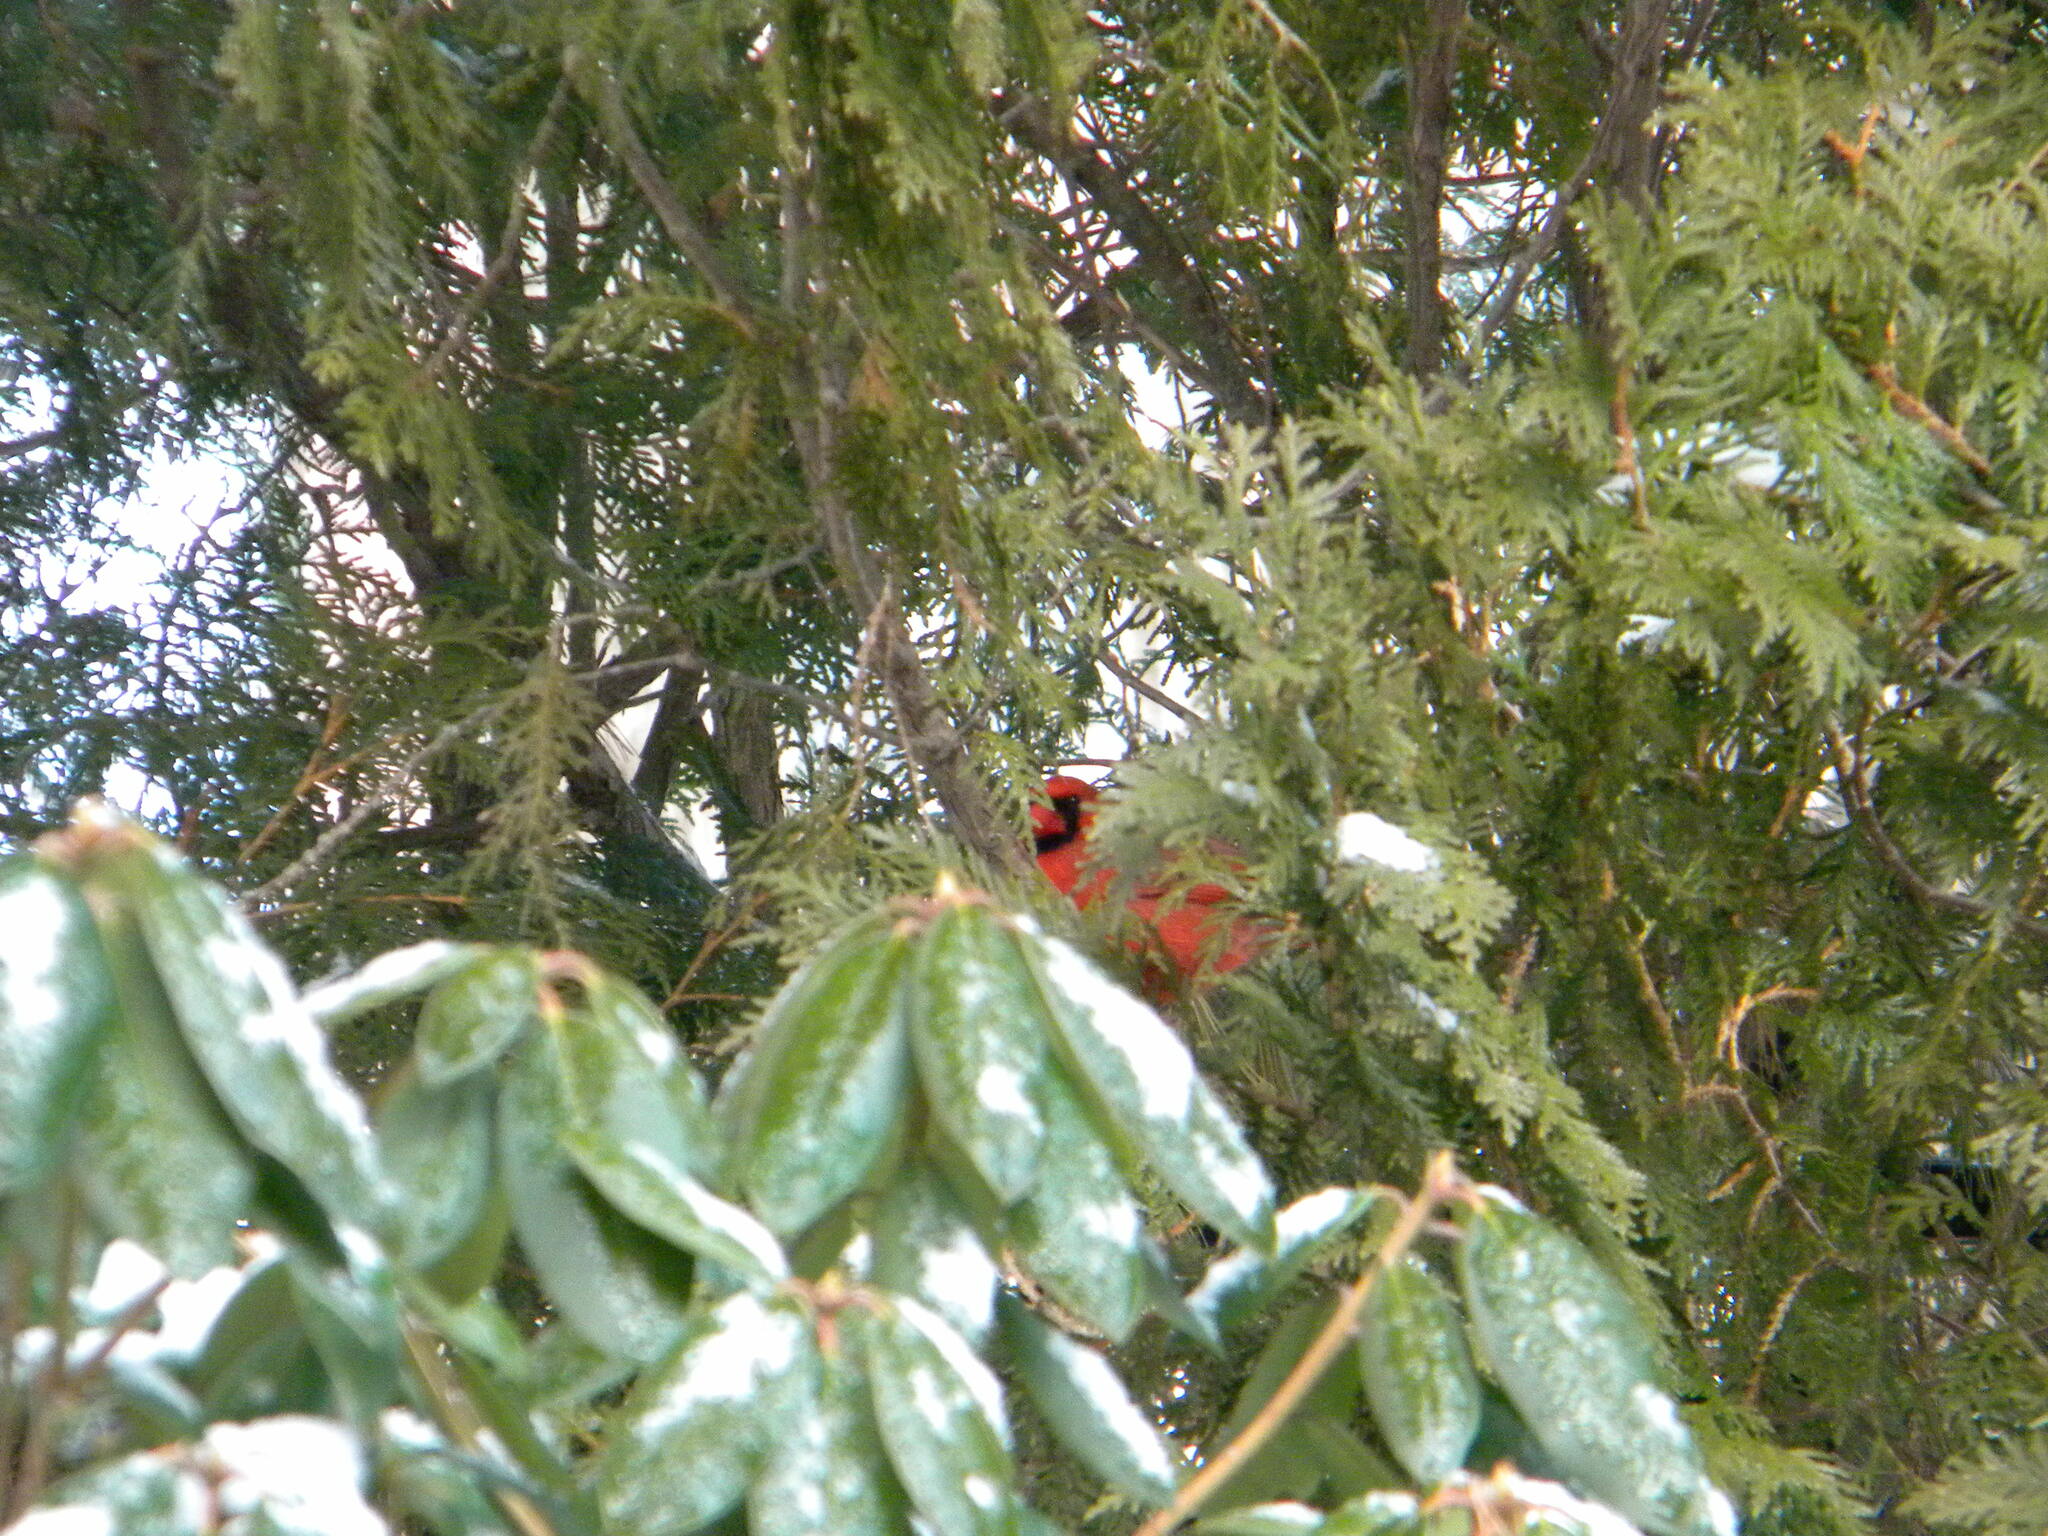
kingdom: Animalia
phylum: Chordata
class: Aves
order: Passeriformes
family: Cardinalidae
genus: Cardinalis
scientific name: Cardinalis cardinalis
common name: Northern cardinal
